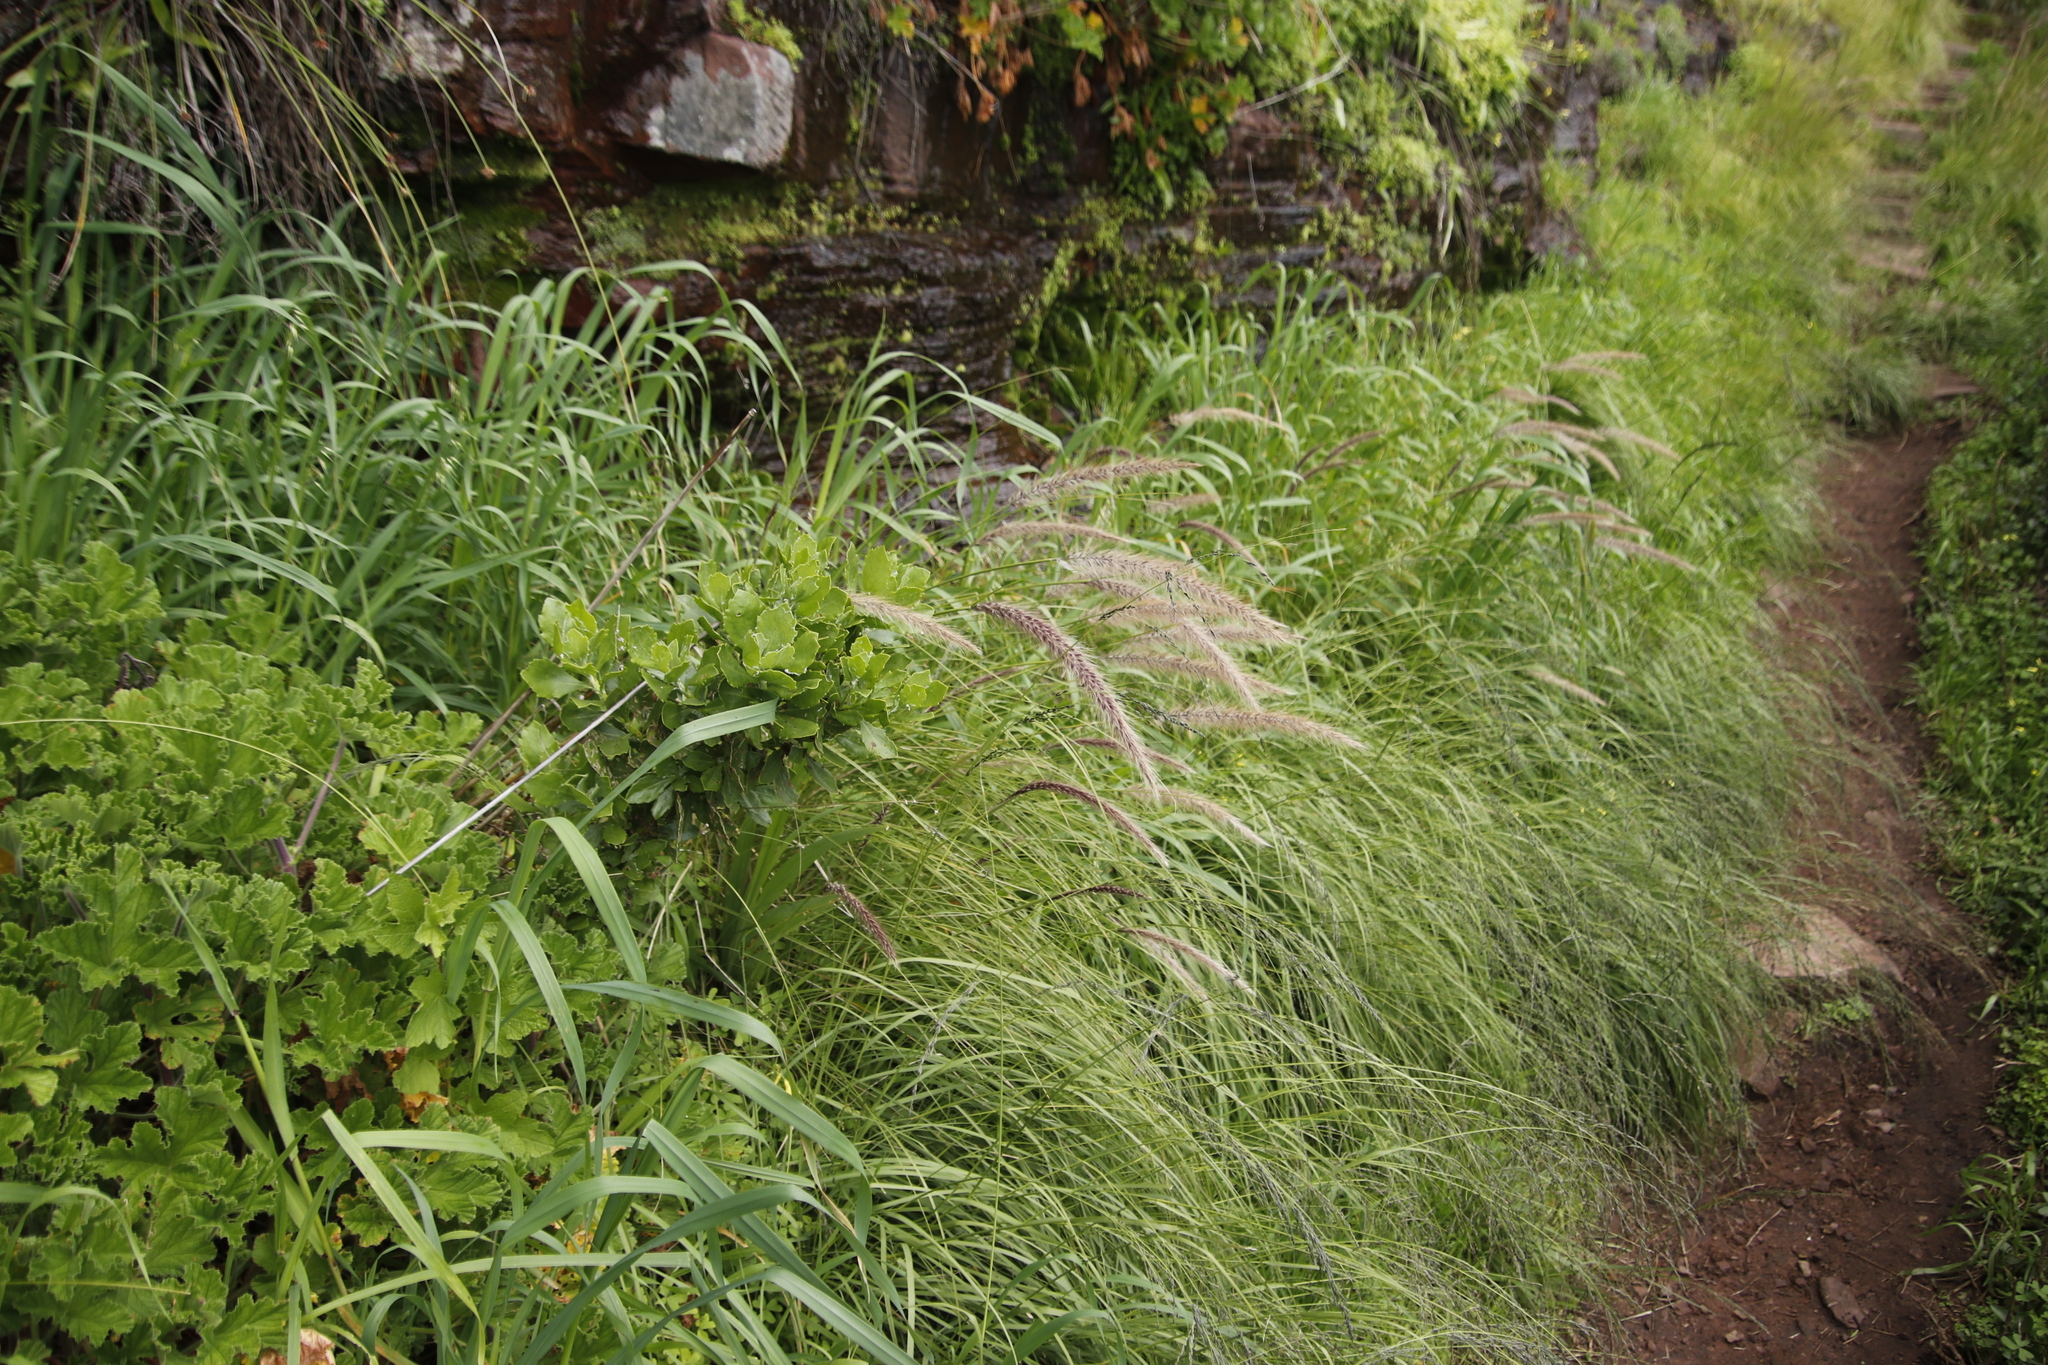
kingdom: Plantae
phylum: Tracheophyta
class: Liliopsida
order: Poales
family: Poaceae
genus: Cenchrus
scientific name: Cenchrus setaceus
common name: Crimson fountaingrass
